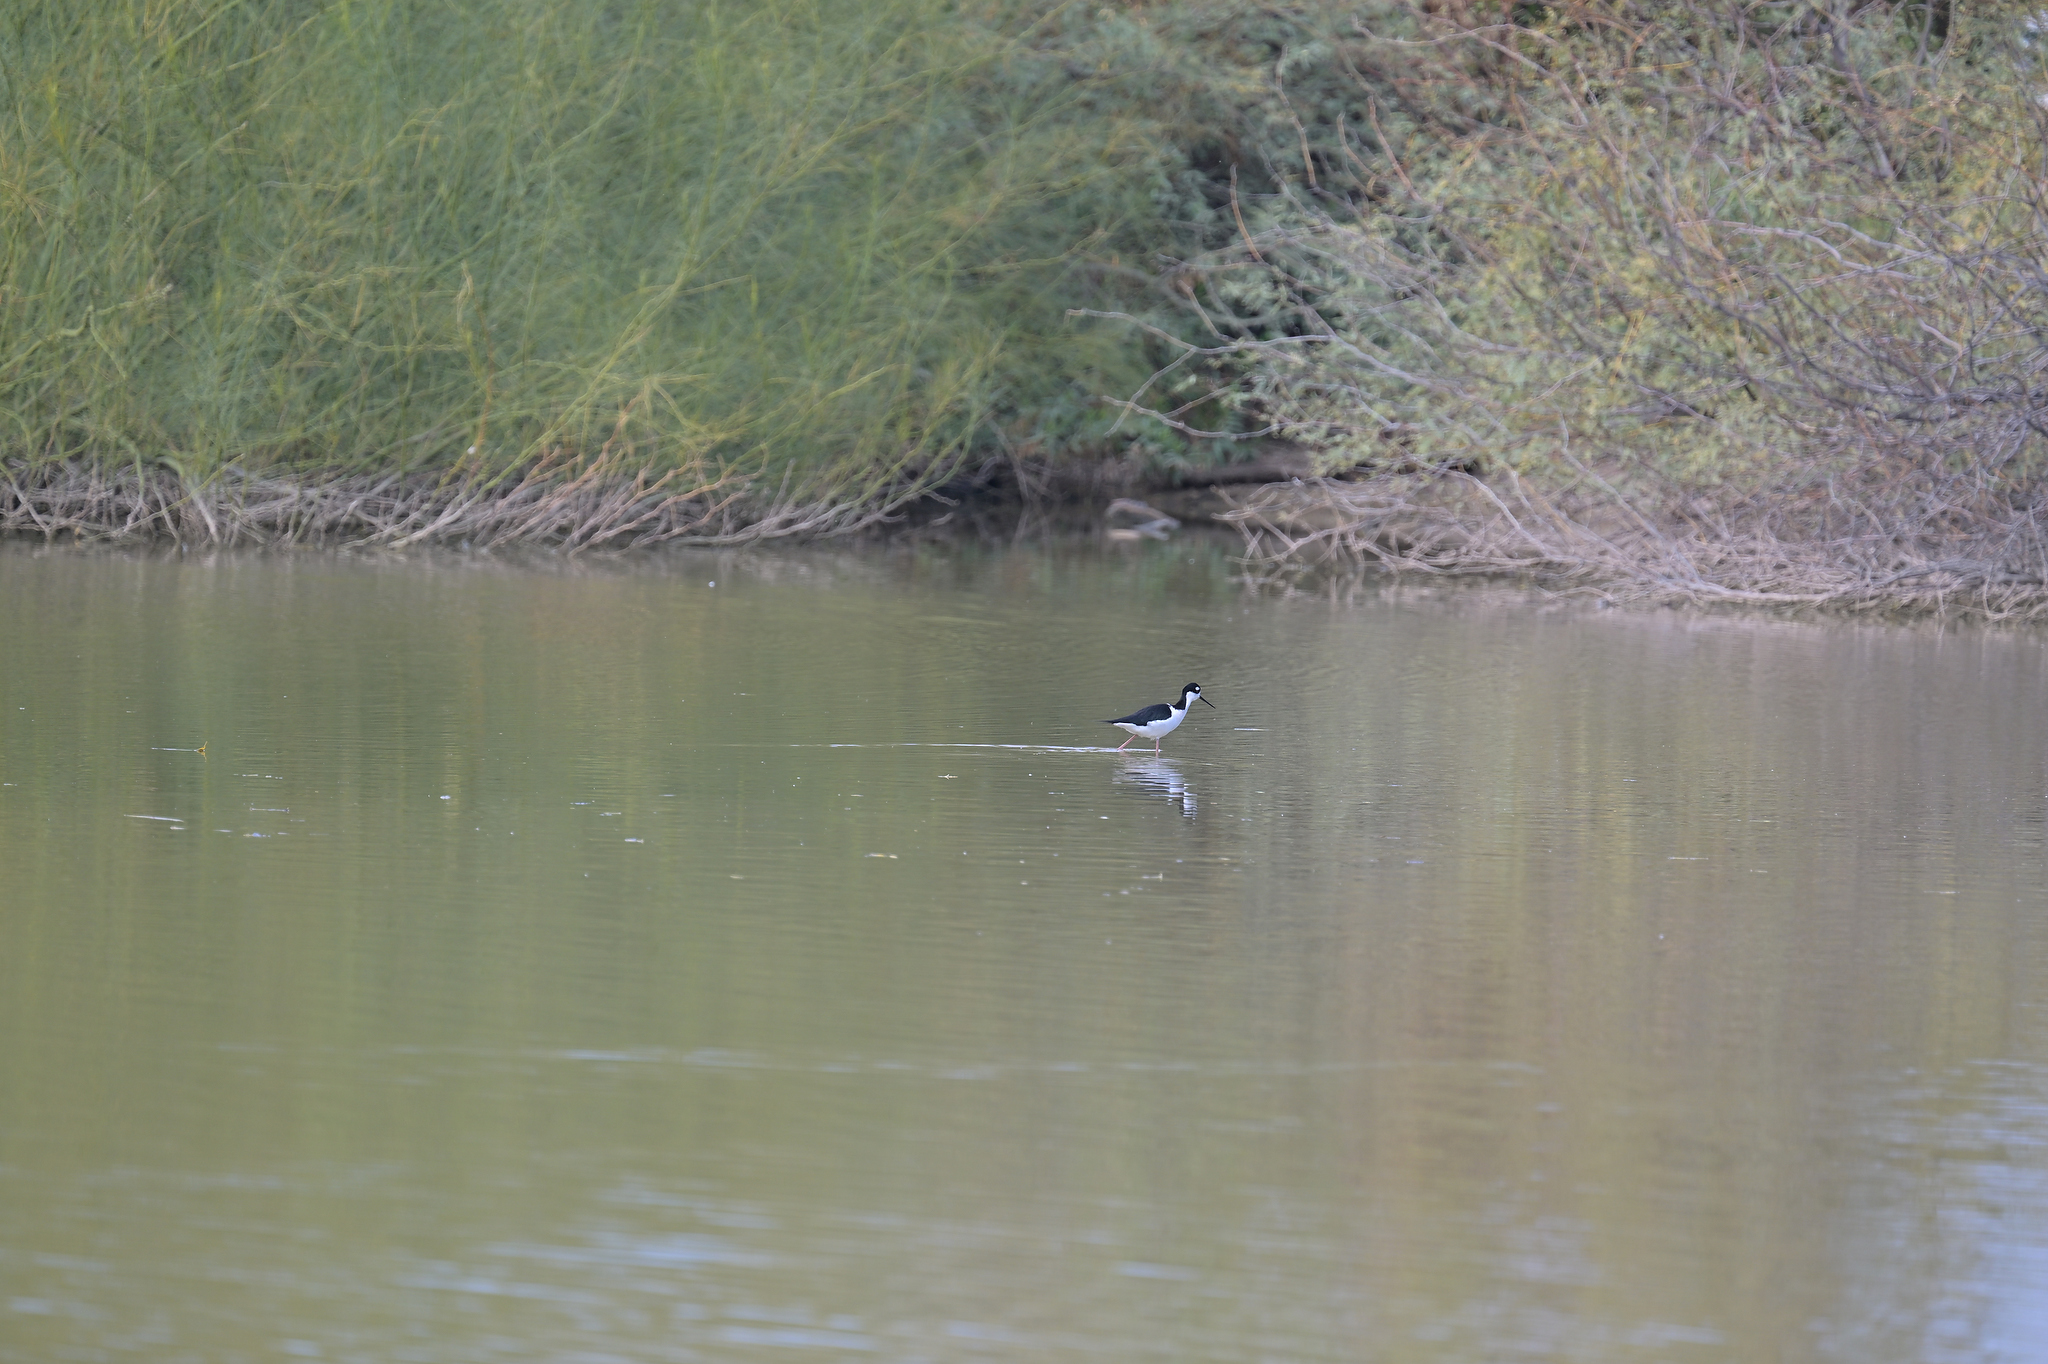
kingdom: Animalia
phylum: Chordata
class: Aves
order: Charadriiformes
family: Recurvirostridae
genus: Himantopus
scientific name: Himantopus mexicanus
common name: Black-necked stilt
